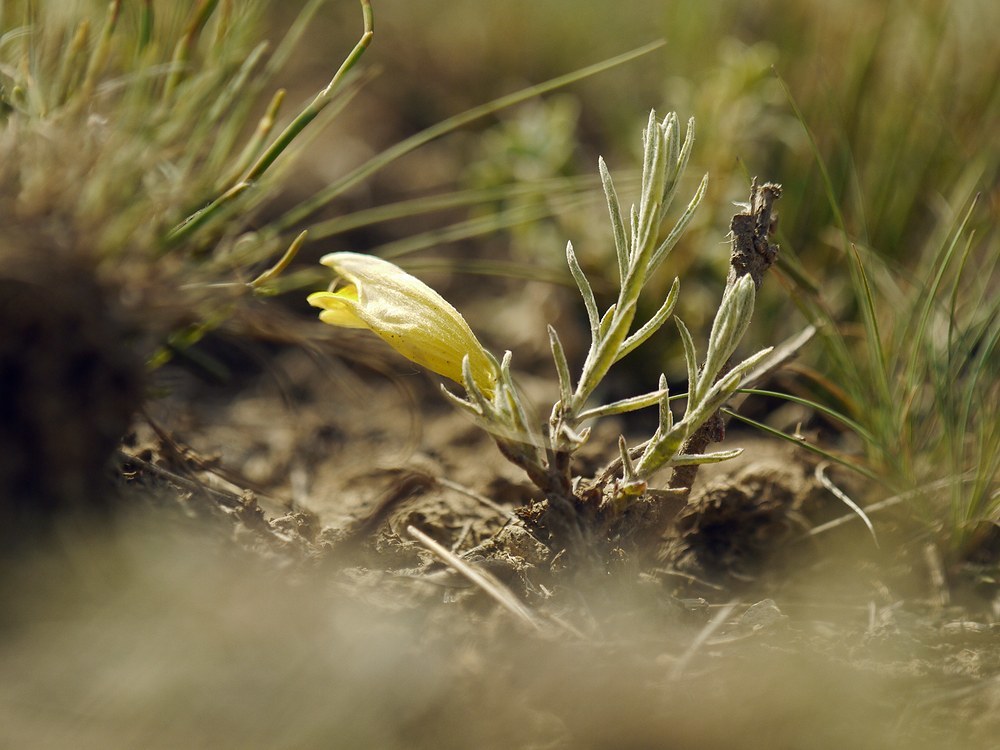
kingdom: Plantae
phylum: Tracheophyta
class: Magnoliopsida
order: Lamiales
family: Orobanchaceae
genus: Cymbaria
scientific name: Cymbaria borysthenica
